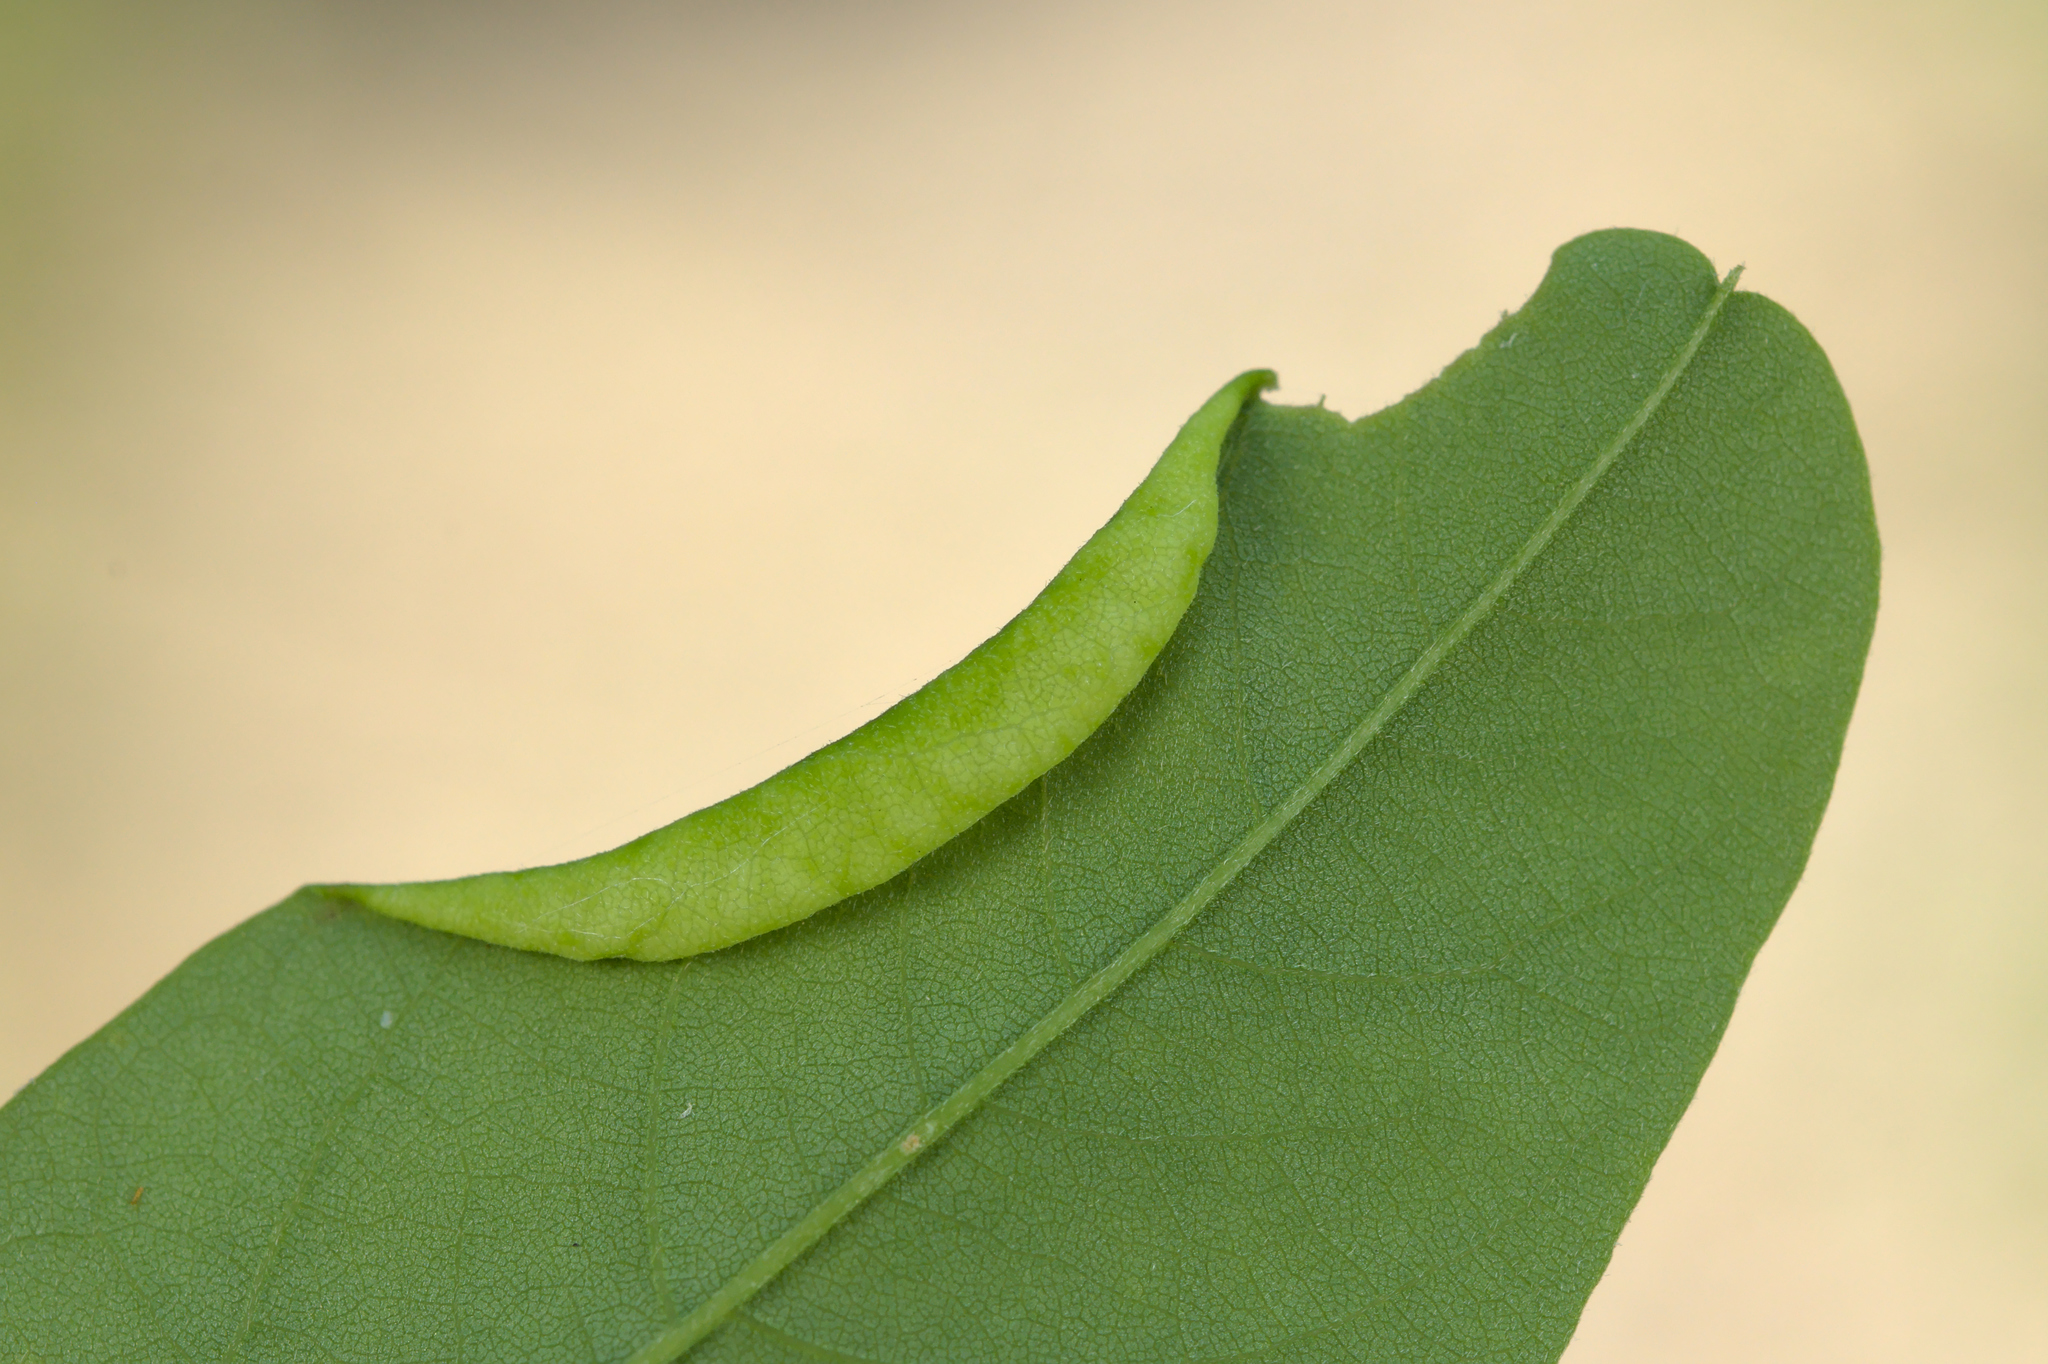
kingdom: Animalia
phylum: Arthropoda
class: Insecta
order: Diptera
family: Cecidomyiidae
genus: Obolodiplosis
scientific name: Obolodiplosis robiniae
